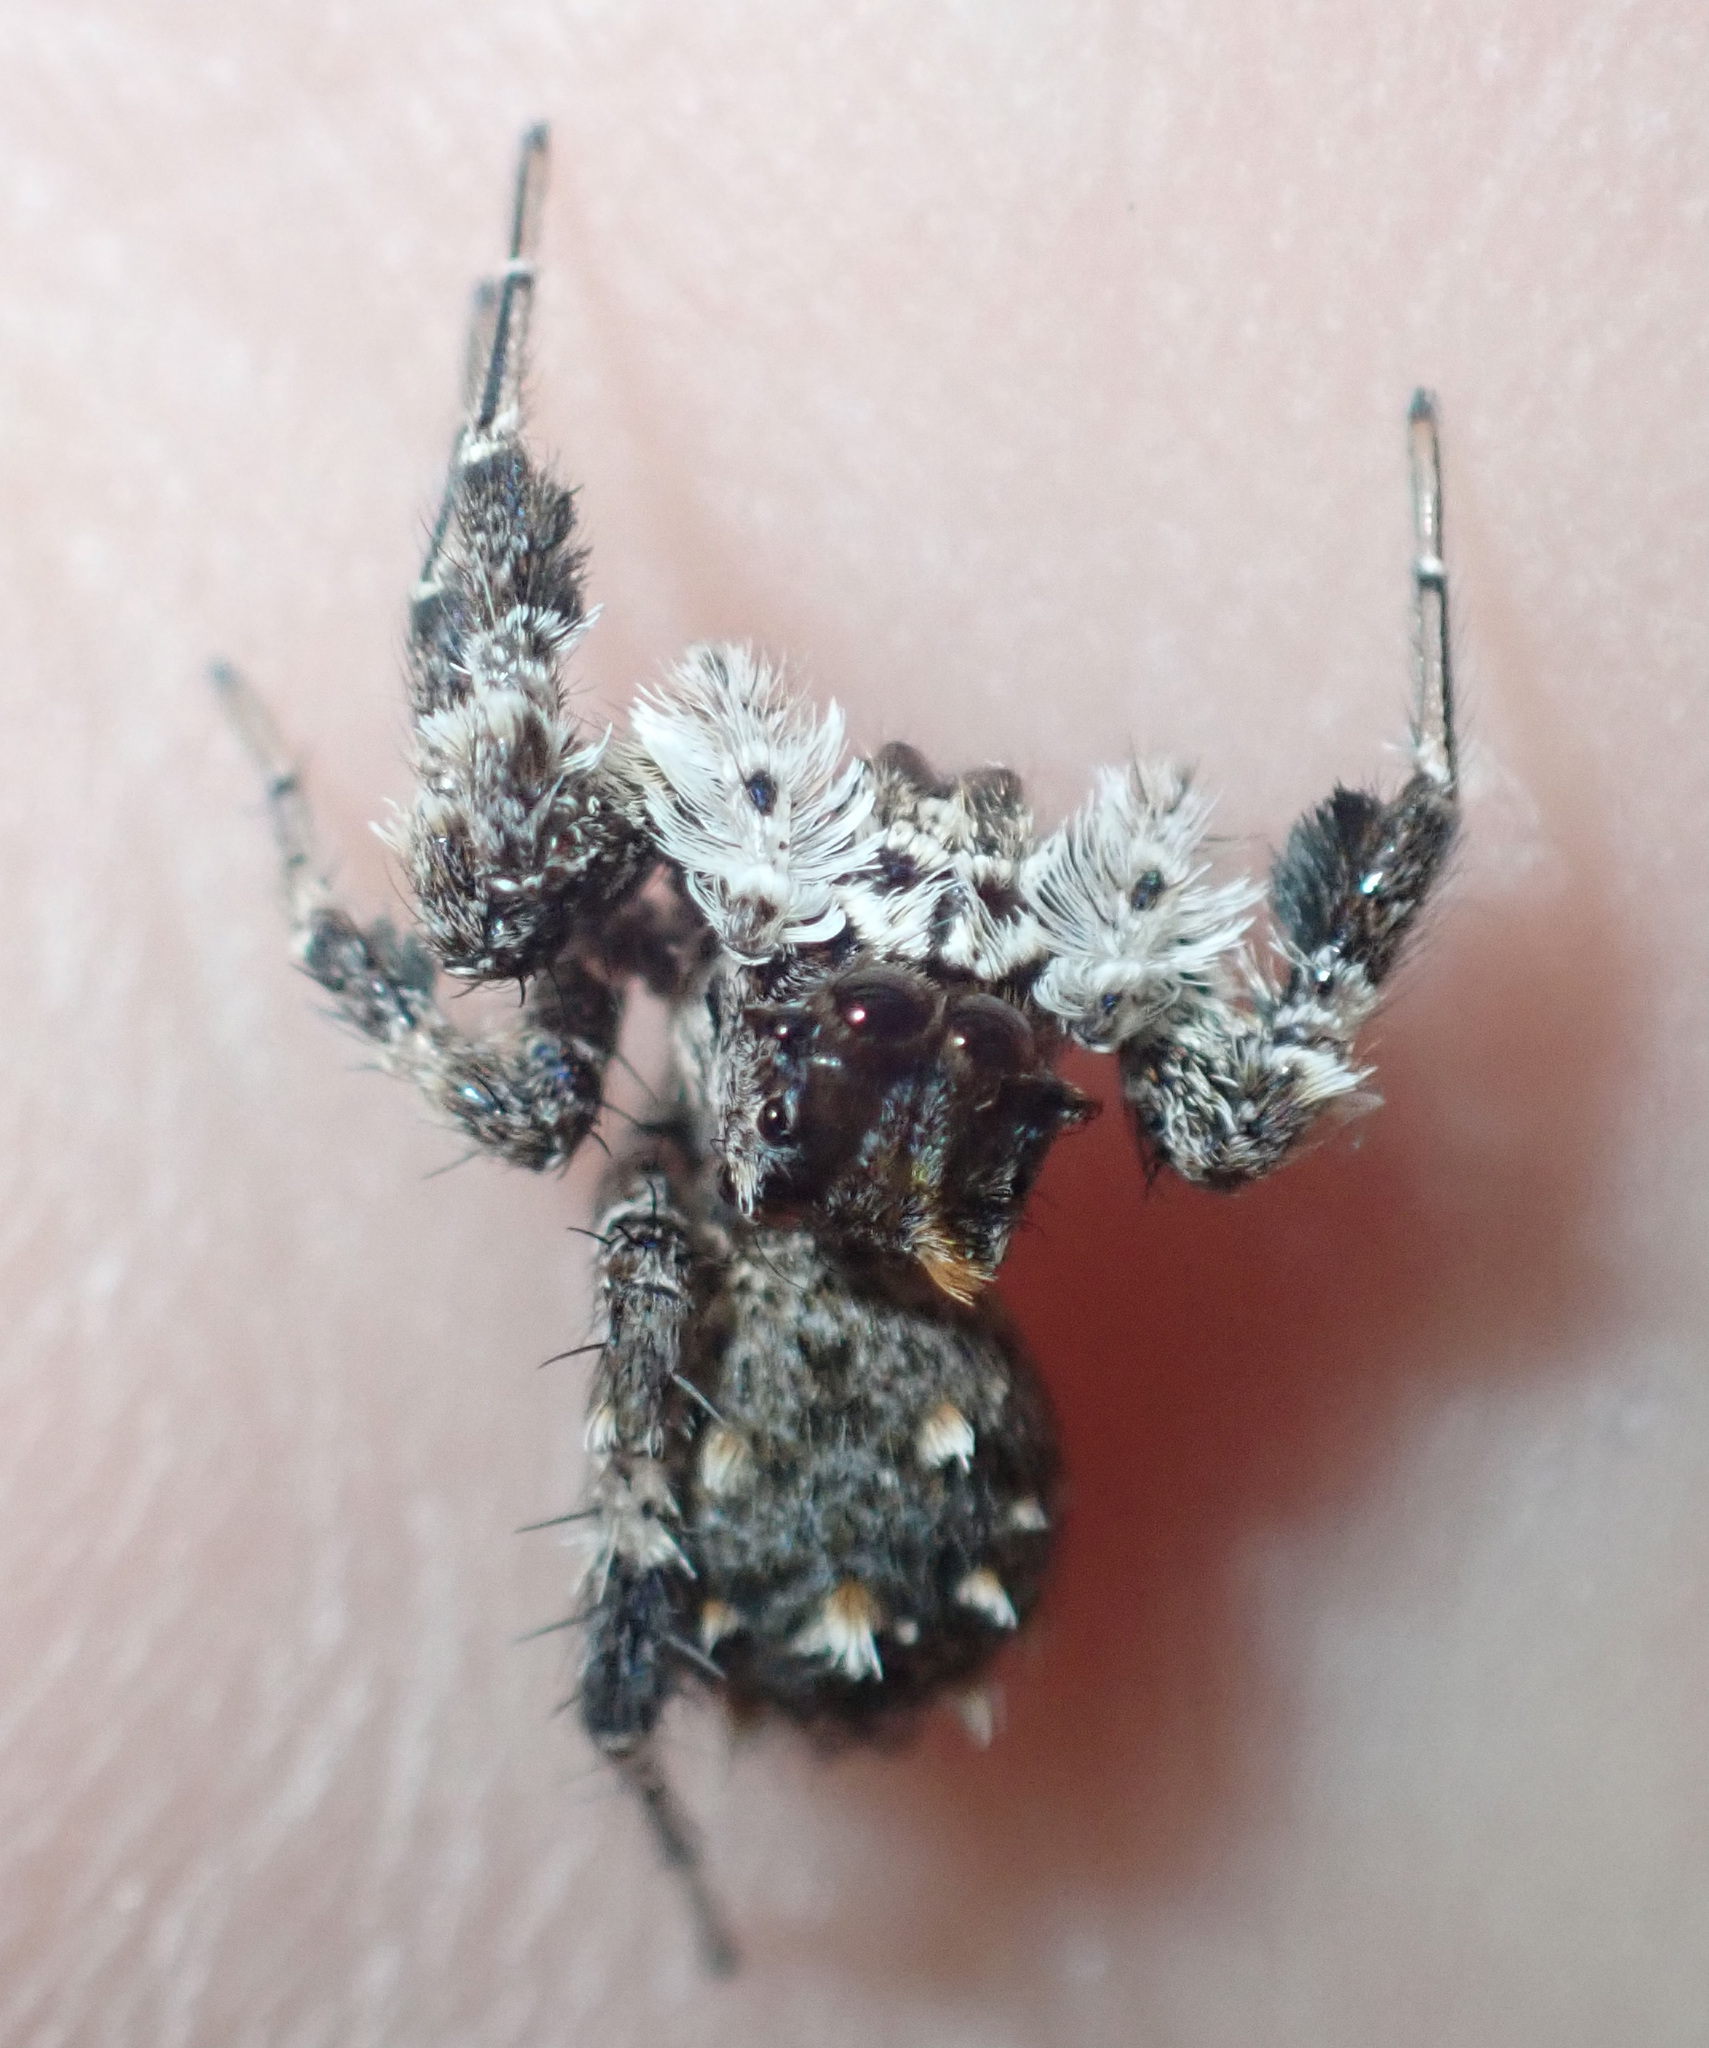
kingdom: Animalia
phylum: Arthropoda
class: Arachnida
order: Araneae
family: Salticidae
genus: Portia
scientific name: Portia schultzi
